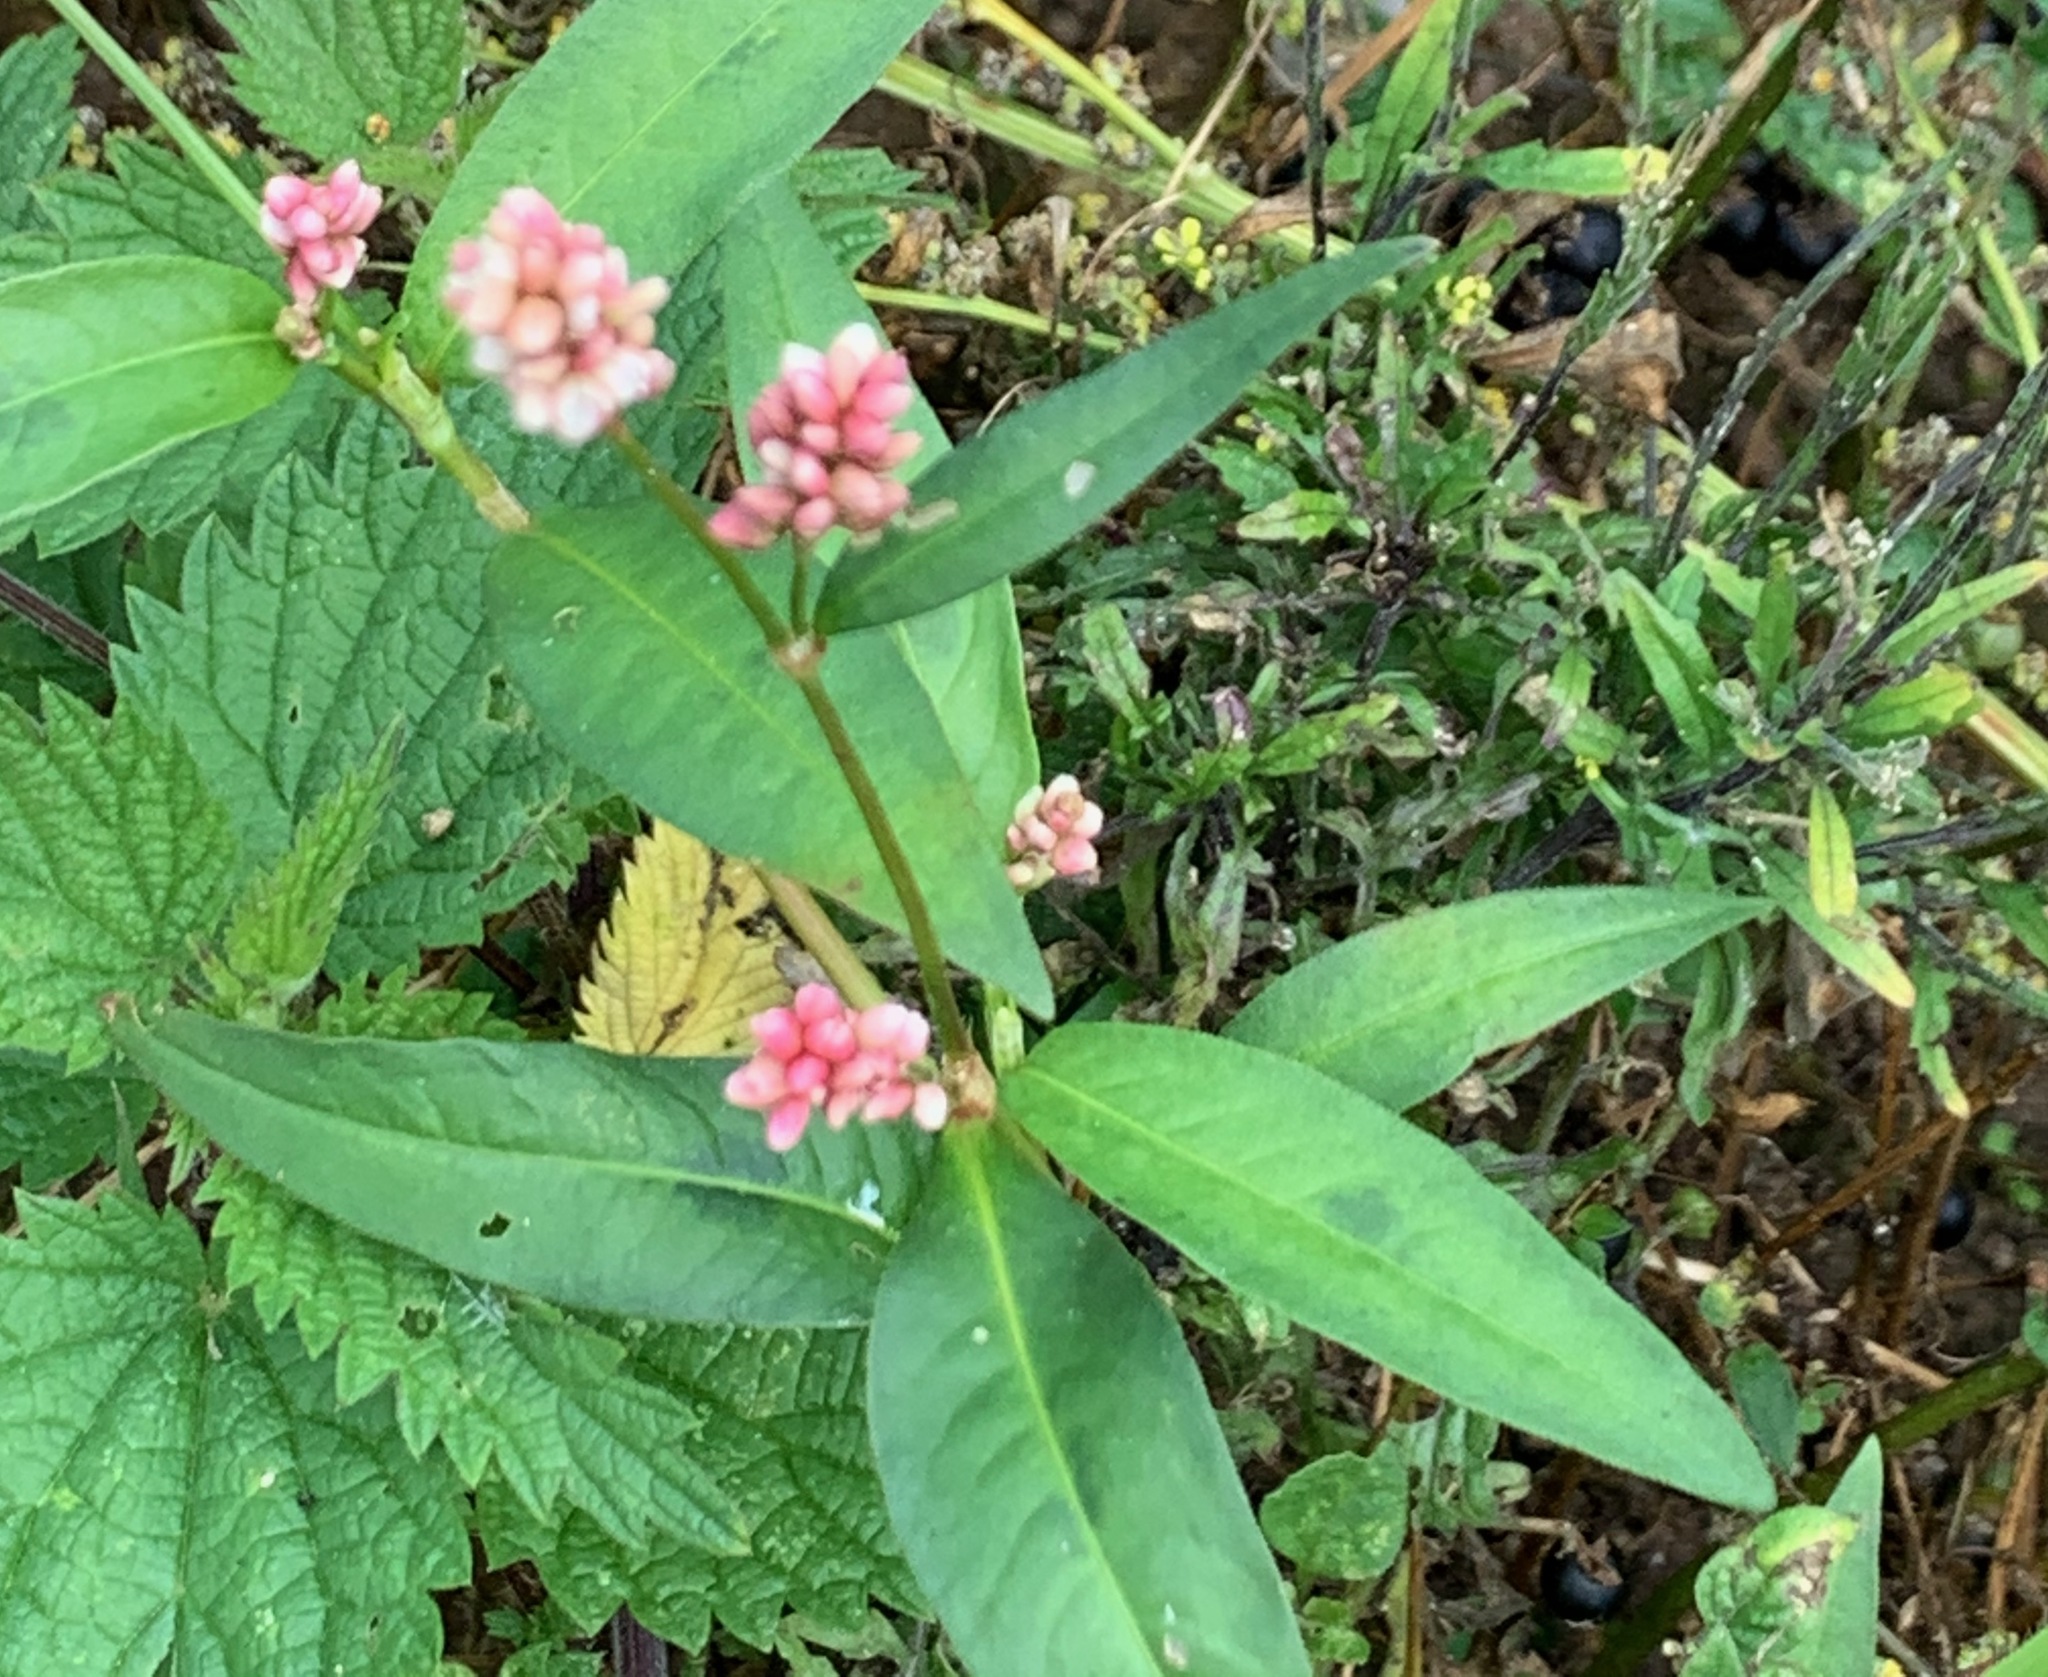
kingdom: Plantae
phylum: Tracheophyta
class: Magnoliopsida
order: Caryophyllales
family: Polygonaceae
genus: Persicaria
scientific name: Persicaria maculosa
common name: Redshank
